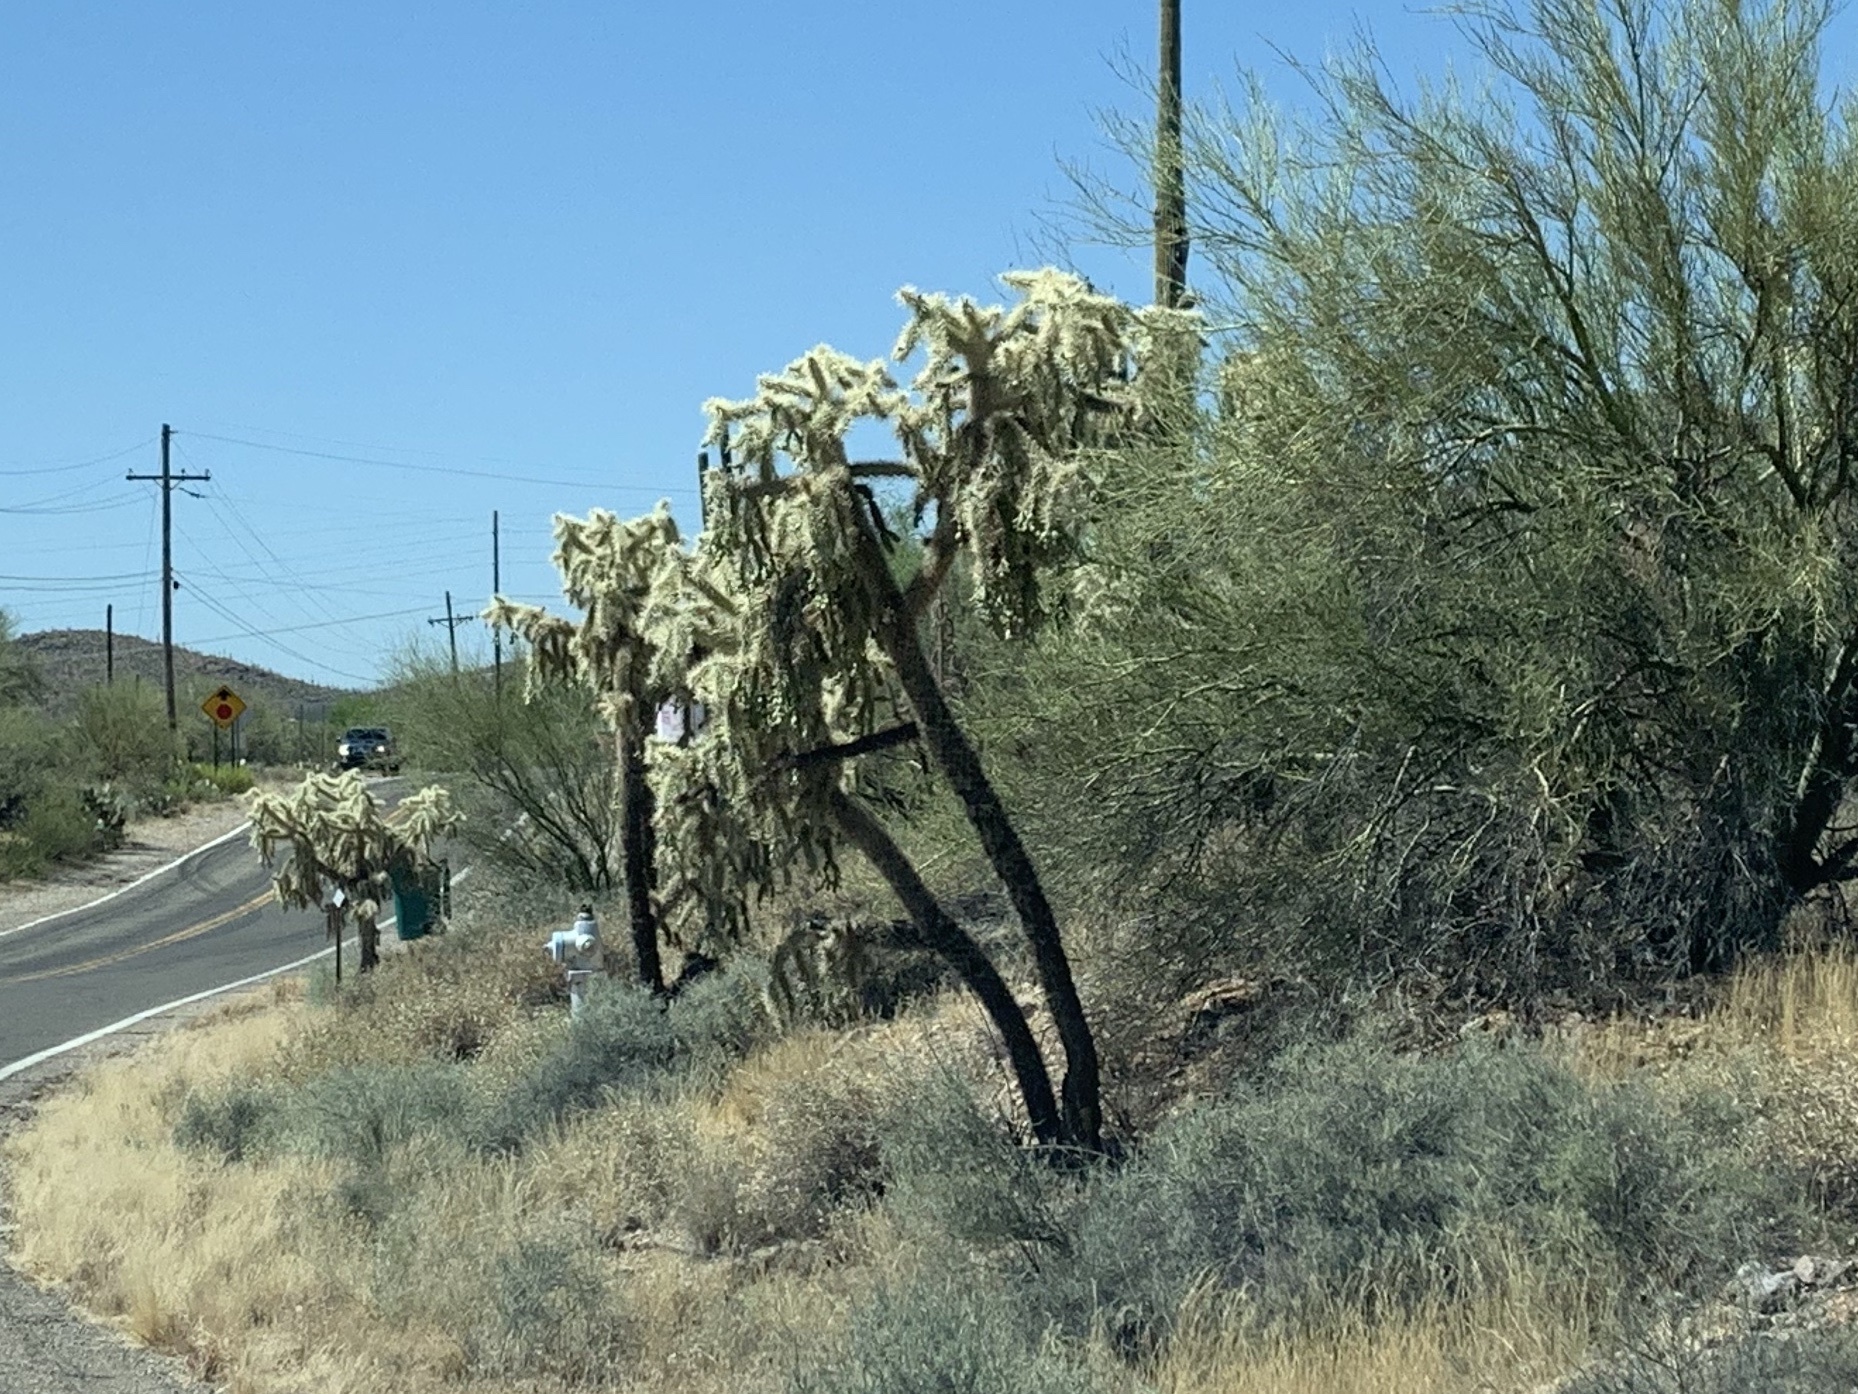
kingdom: Plantae
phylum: Tracheophyta
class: Magnoliopsida
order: Caryophyllales
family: Cactaceae
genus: Cylindropuntia
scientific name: Cylindropuntia fulgida
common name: Jumping cholla
